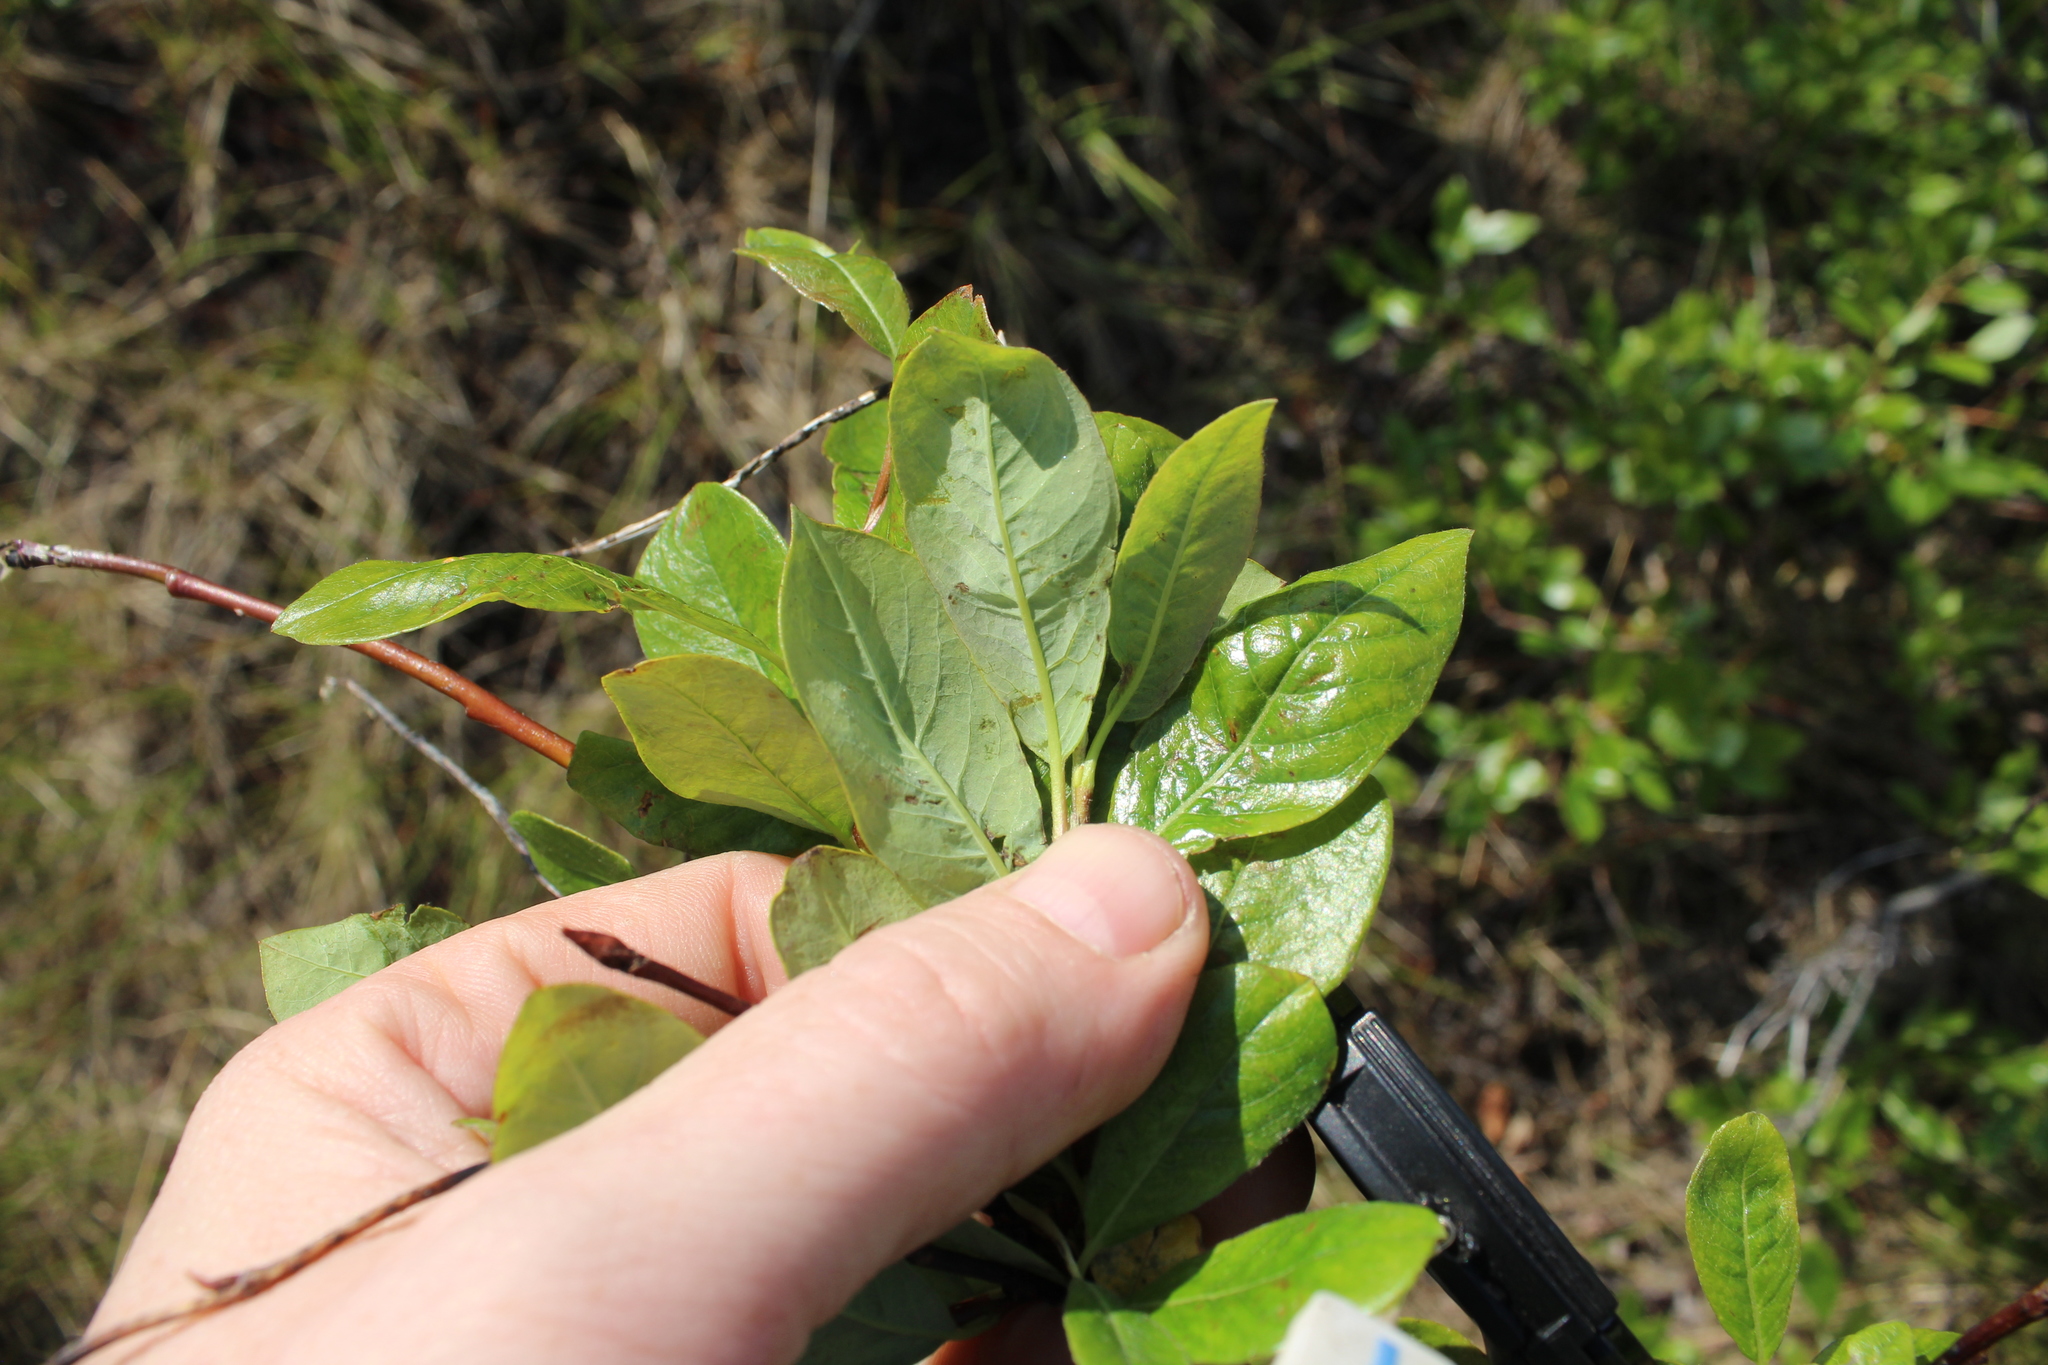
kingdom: Plantae
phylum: Tracheophyta
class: Magnoliopsida
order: Malpighiales
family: Salicaceae
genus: Salix
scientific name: Salix phylicifolia
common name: Tea-leaved willow
